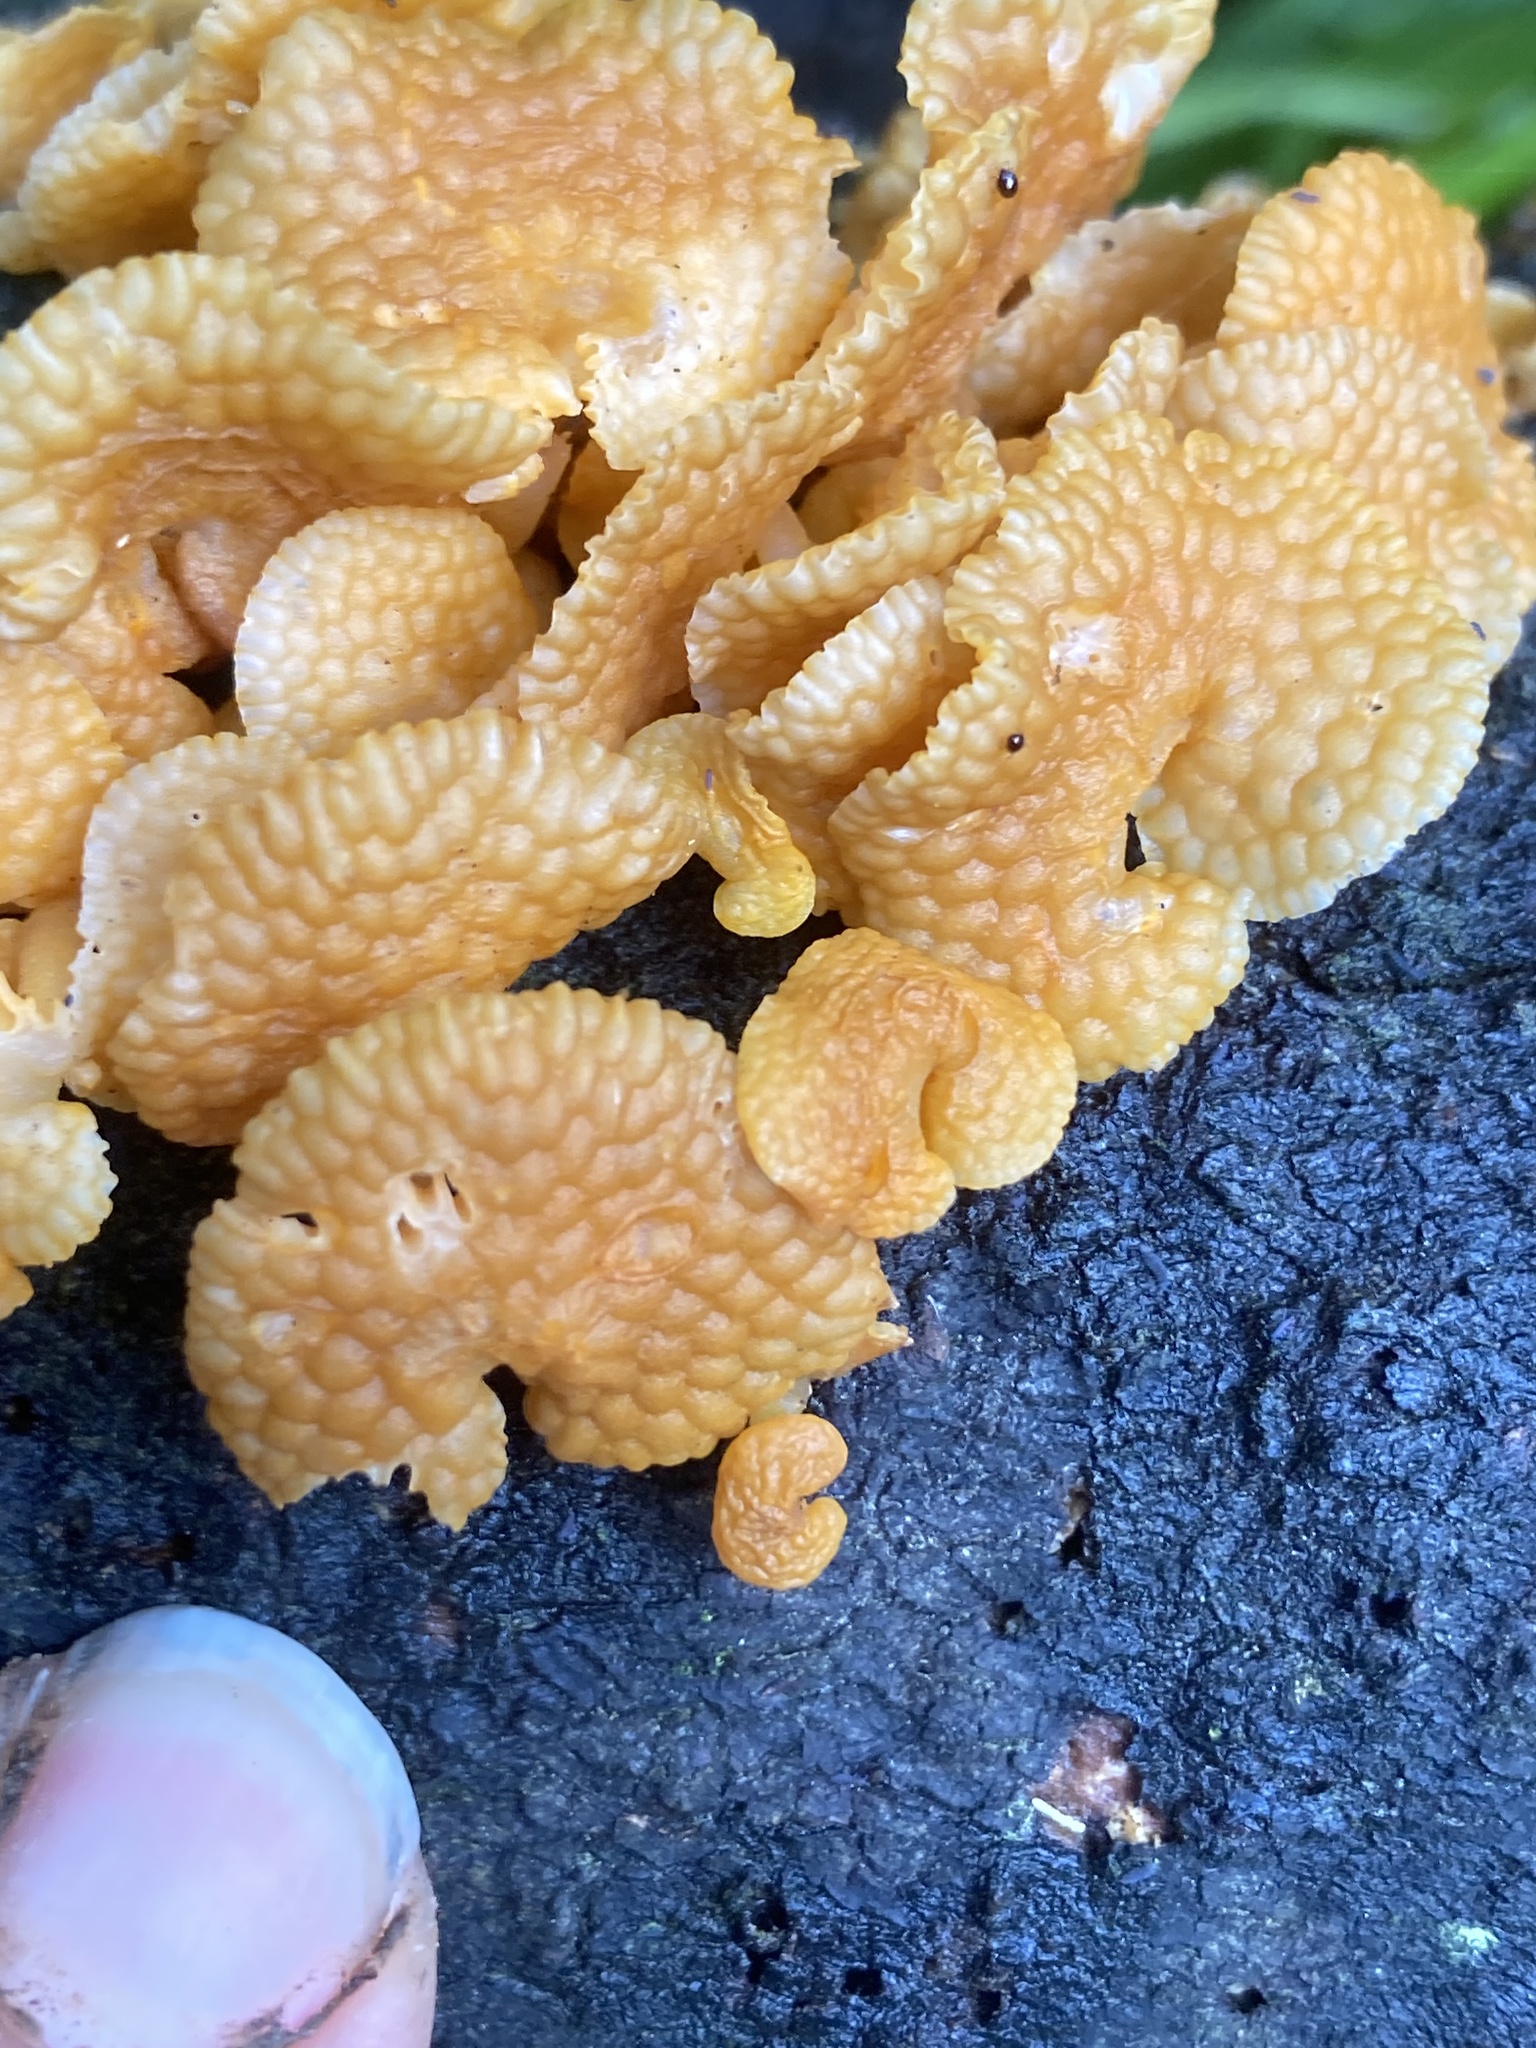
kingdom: Fungi
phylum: Basidiomycota
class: Agaricomycetes
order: Agaricales
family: Mycenaceae
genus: Favolaschia
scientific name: Favolaschia claudopus
